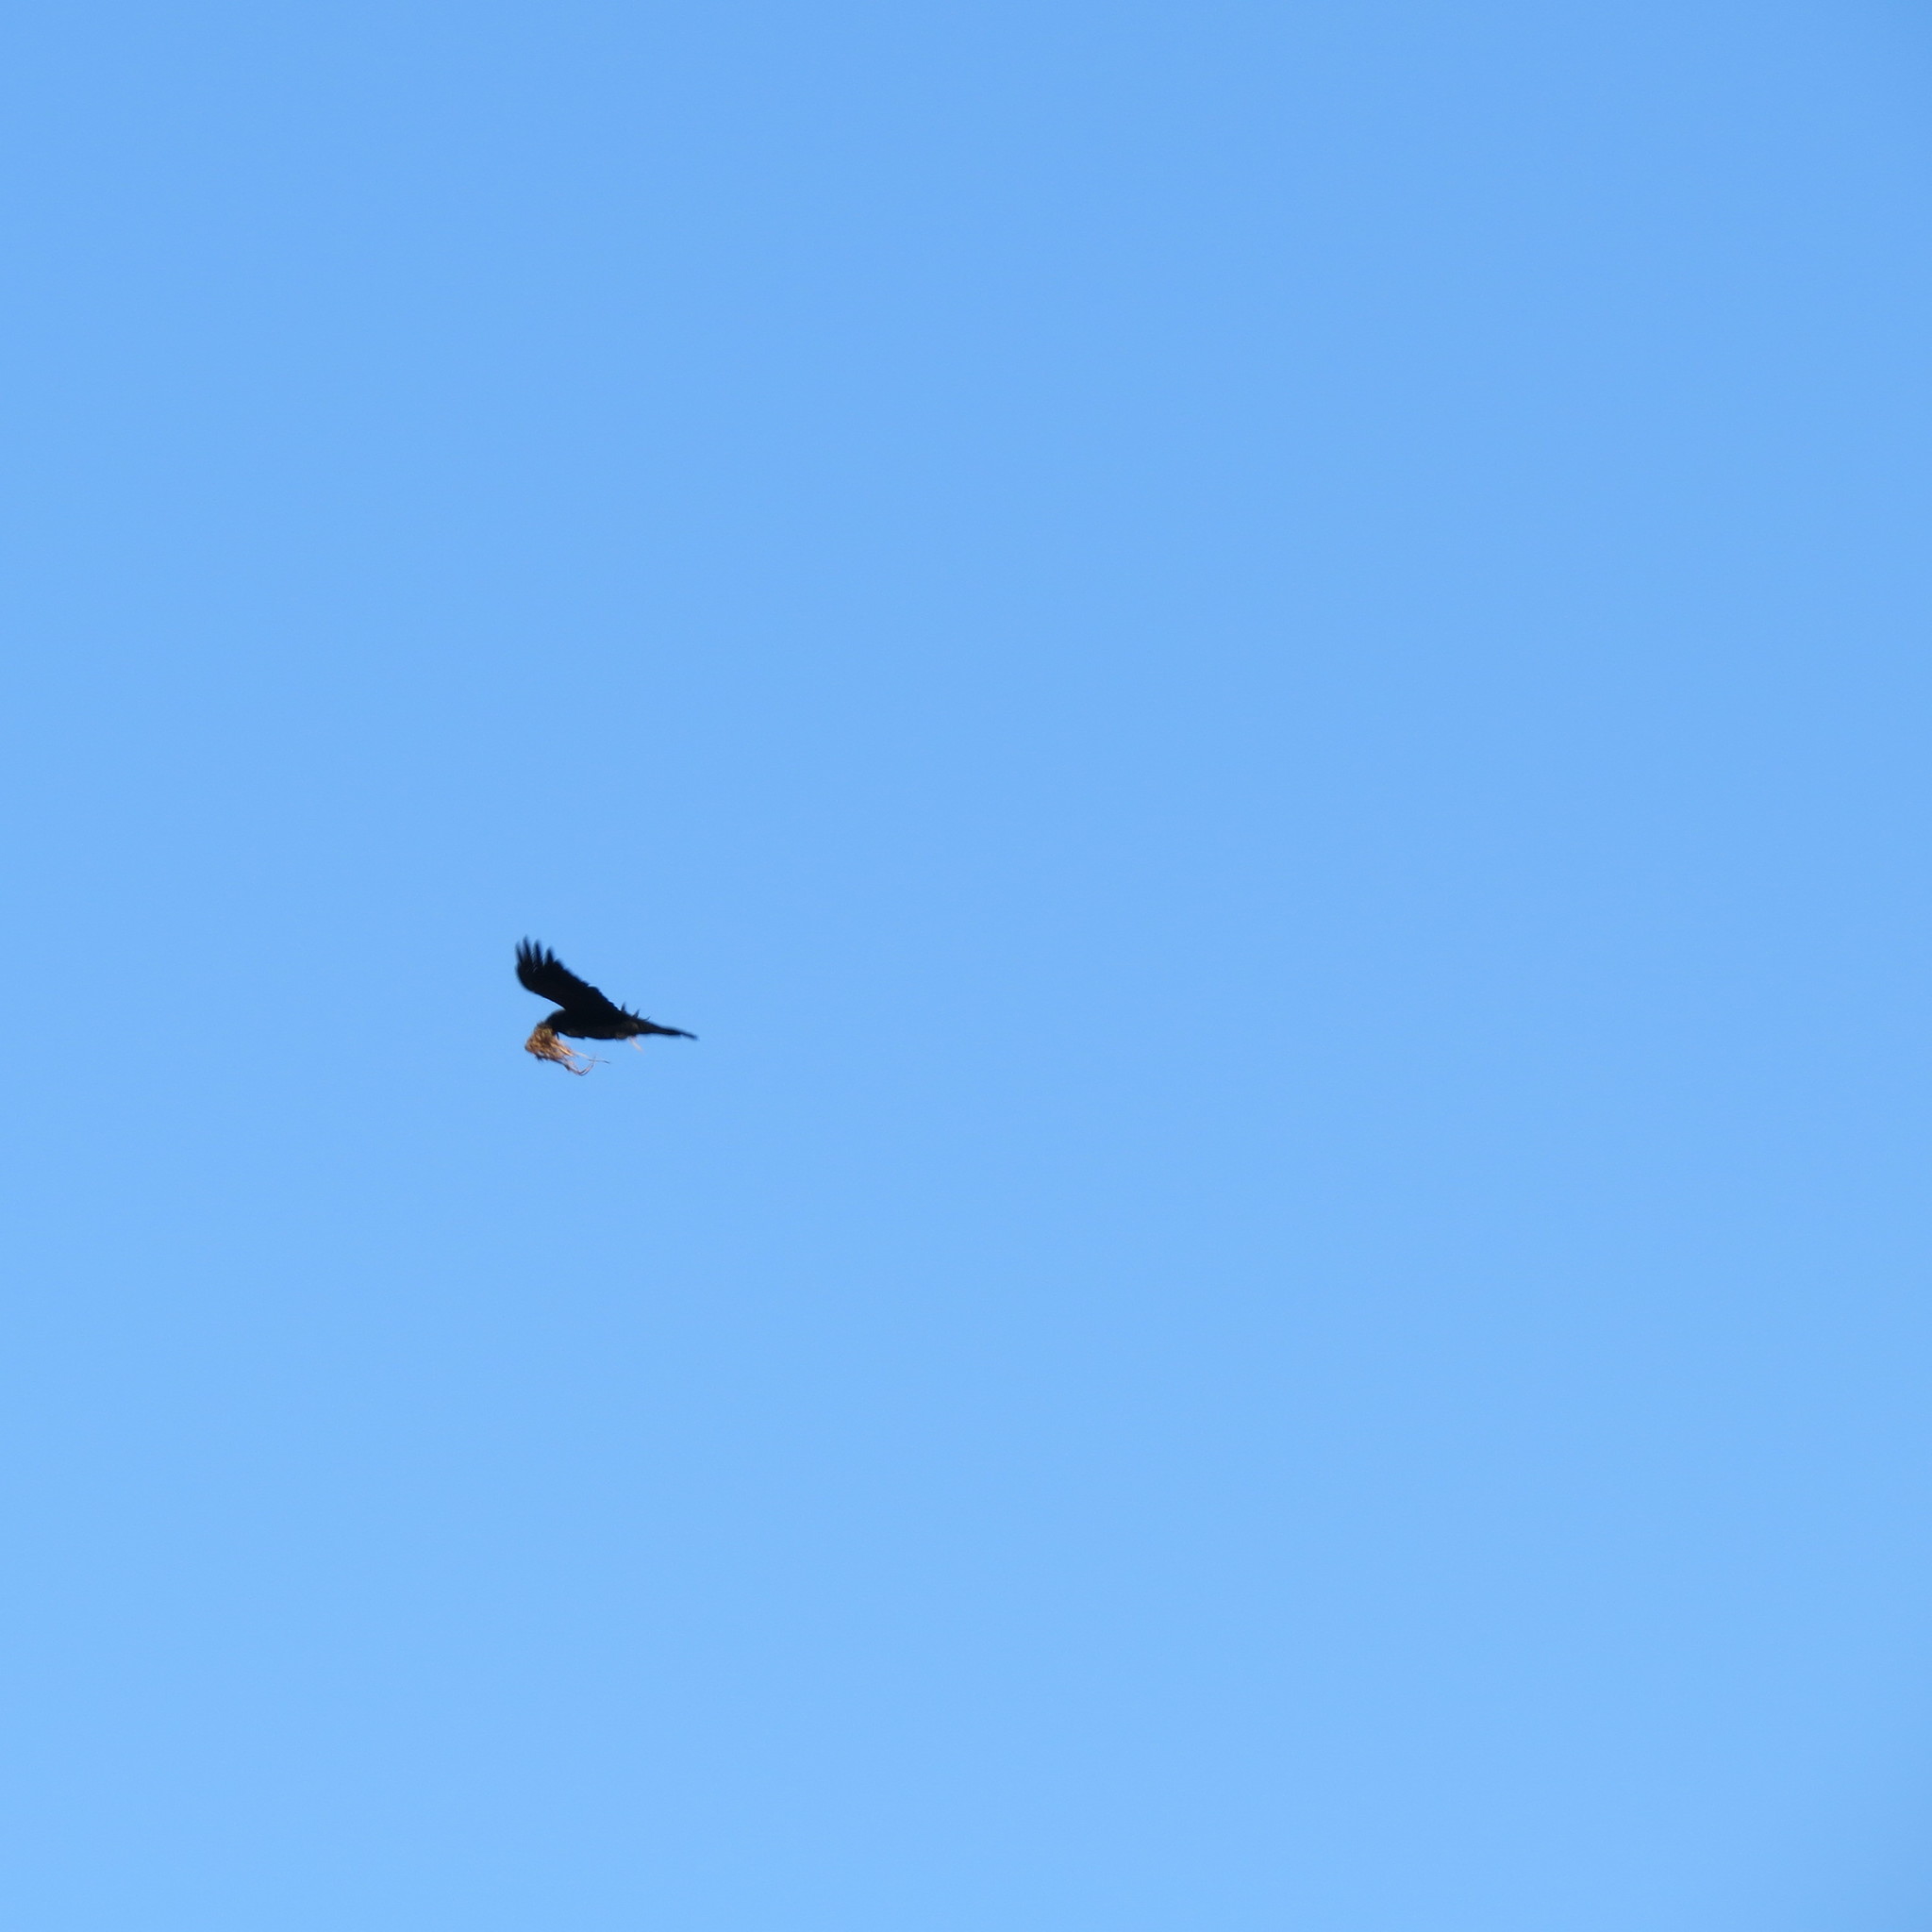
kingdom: Animalia
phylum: Chordata
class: Aves
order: Passeriformes
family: Corvidae
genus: Corvus
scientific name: Corvus corax
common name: Common raven
